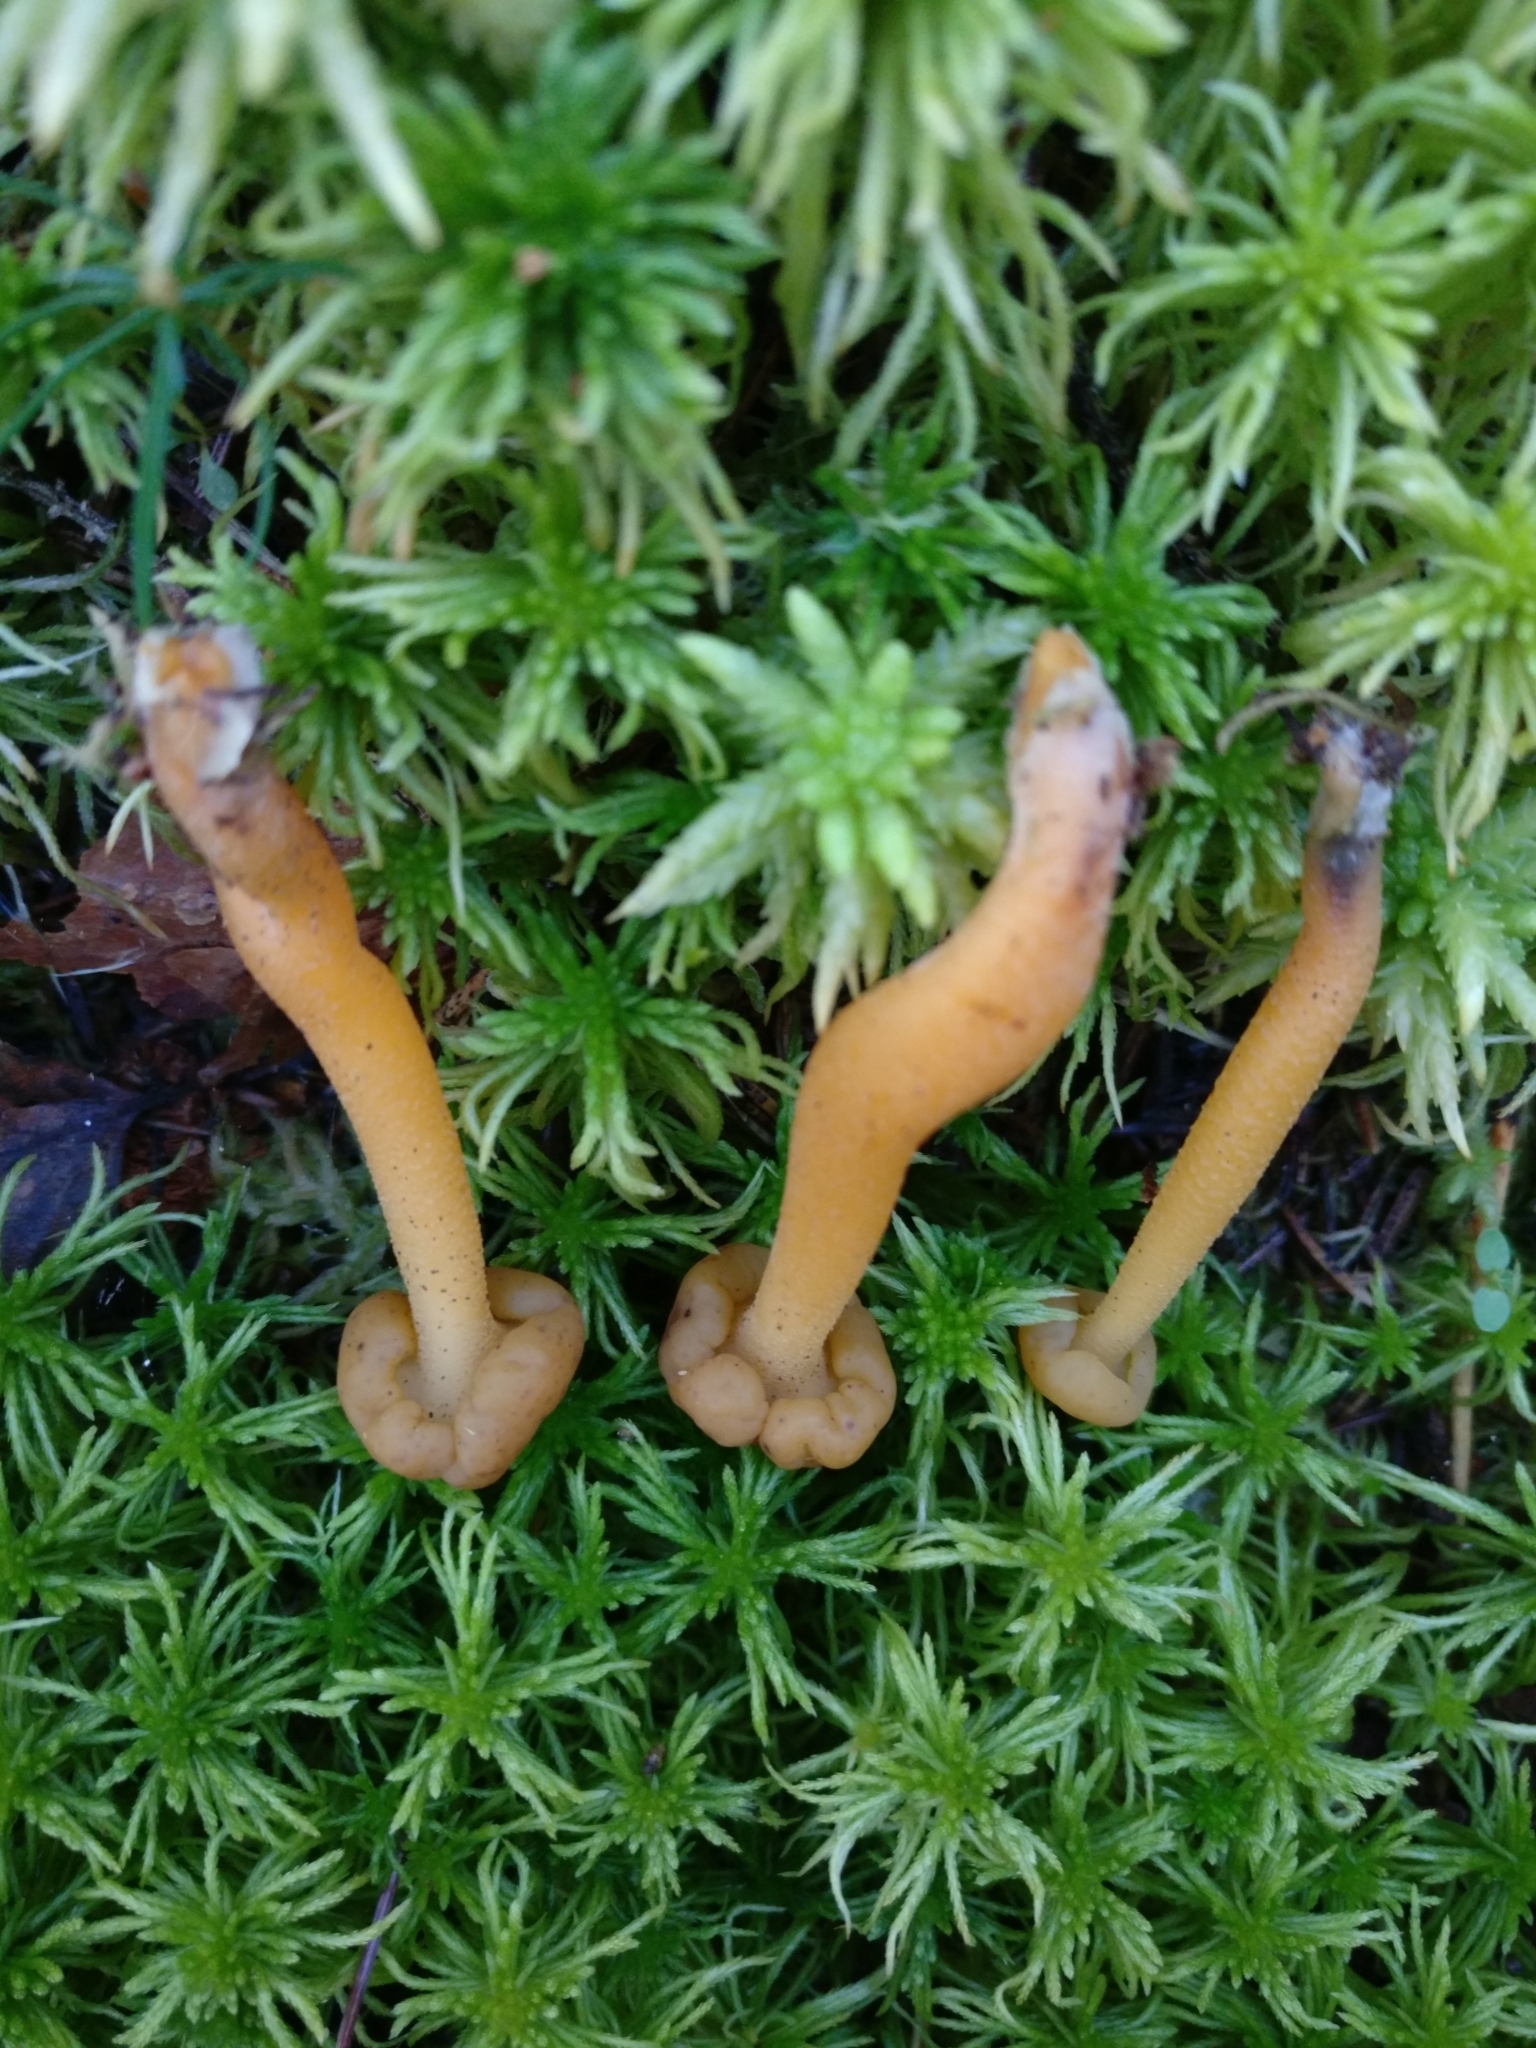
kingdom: Fungi
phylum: Ascomycota
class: Leotiomycetes
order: Leotiales
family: Leotiaceae
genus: Leotia
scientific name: Leotia lubrica
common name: Jellybaby
